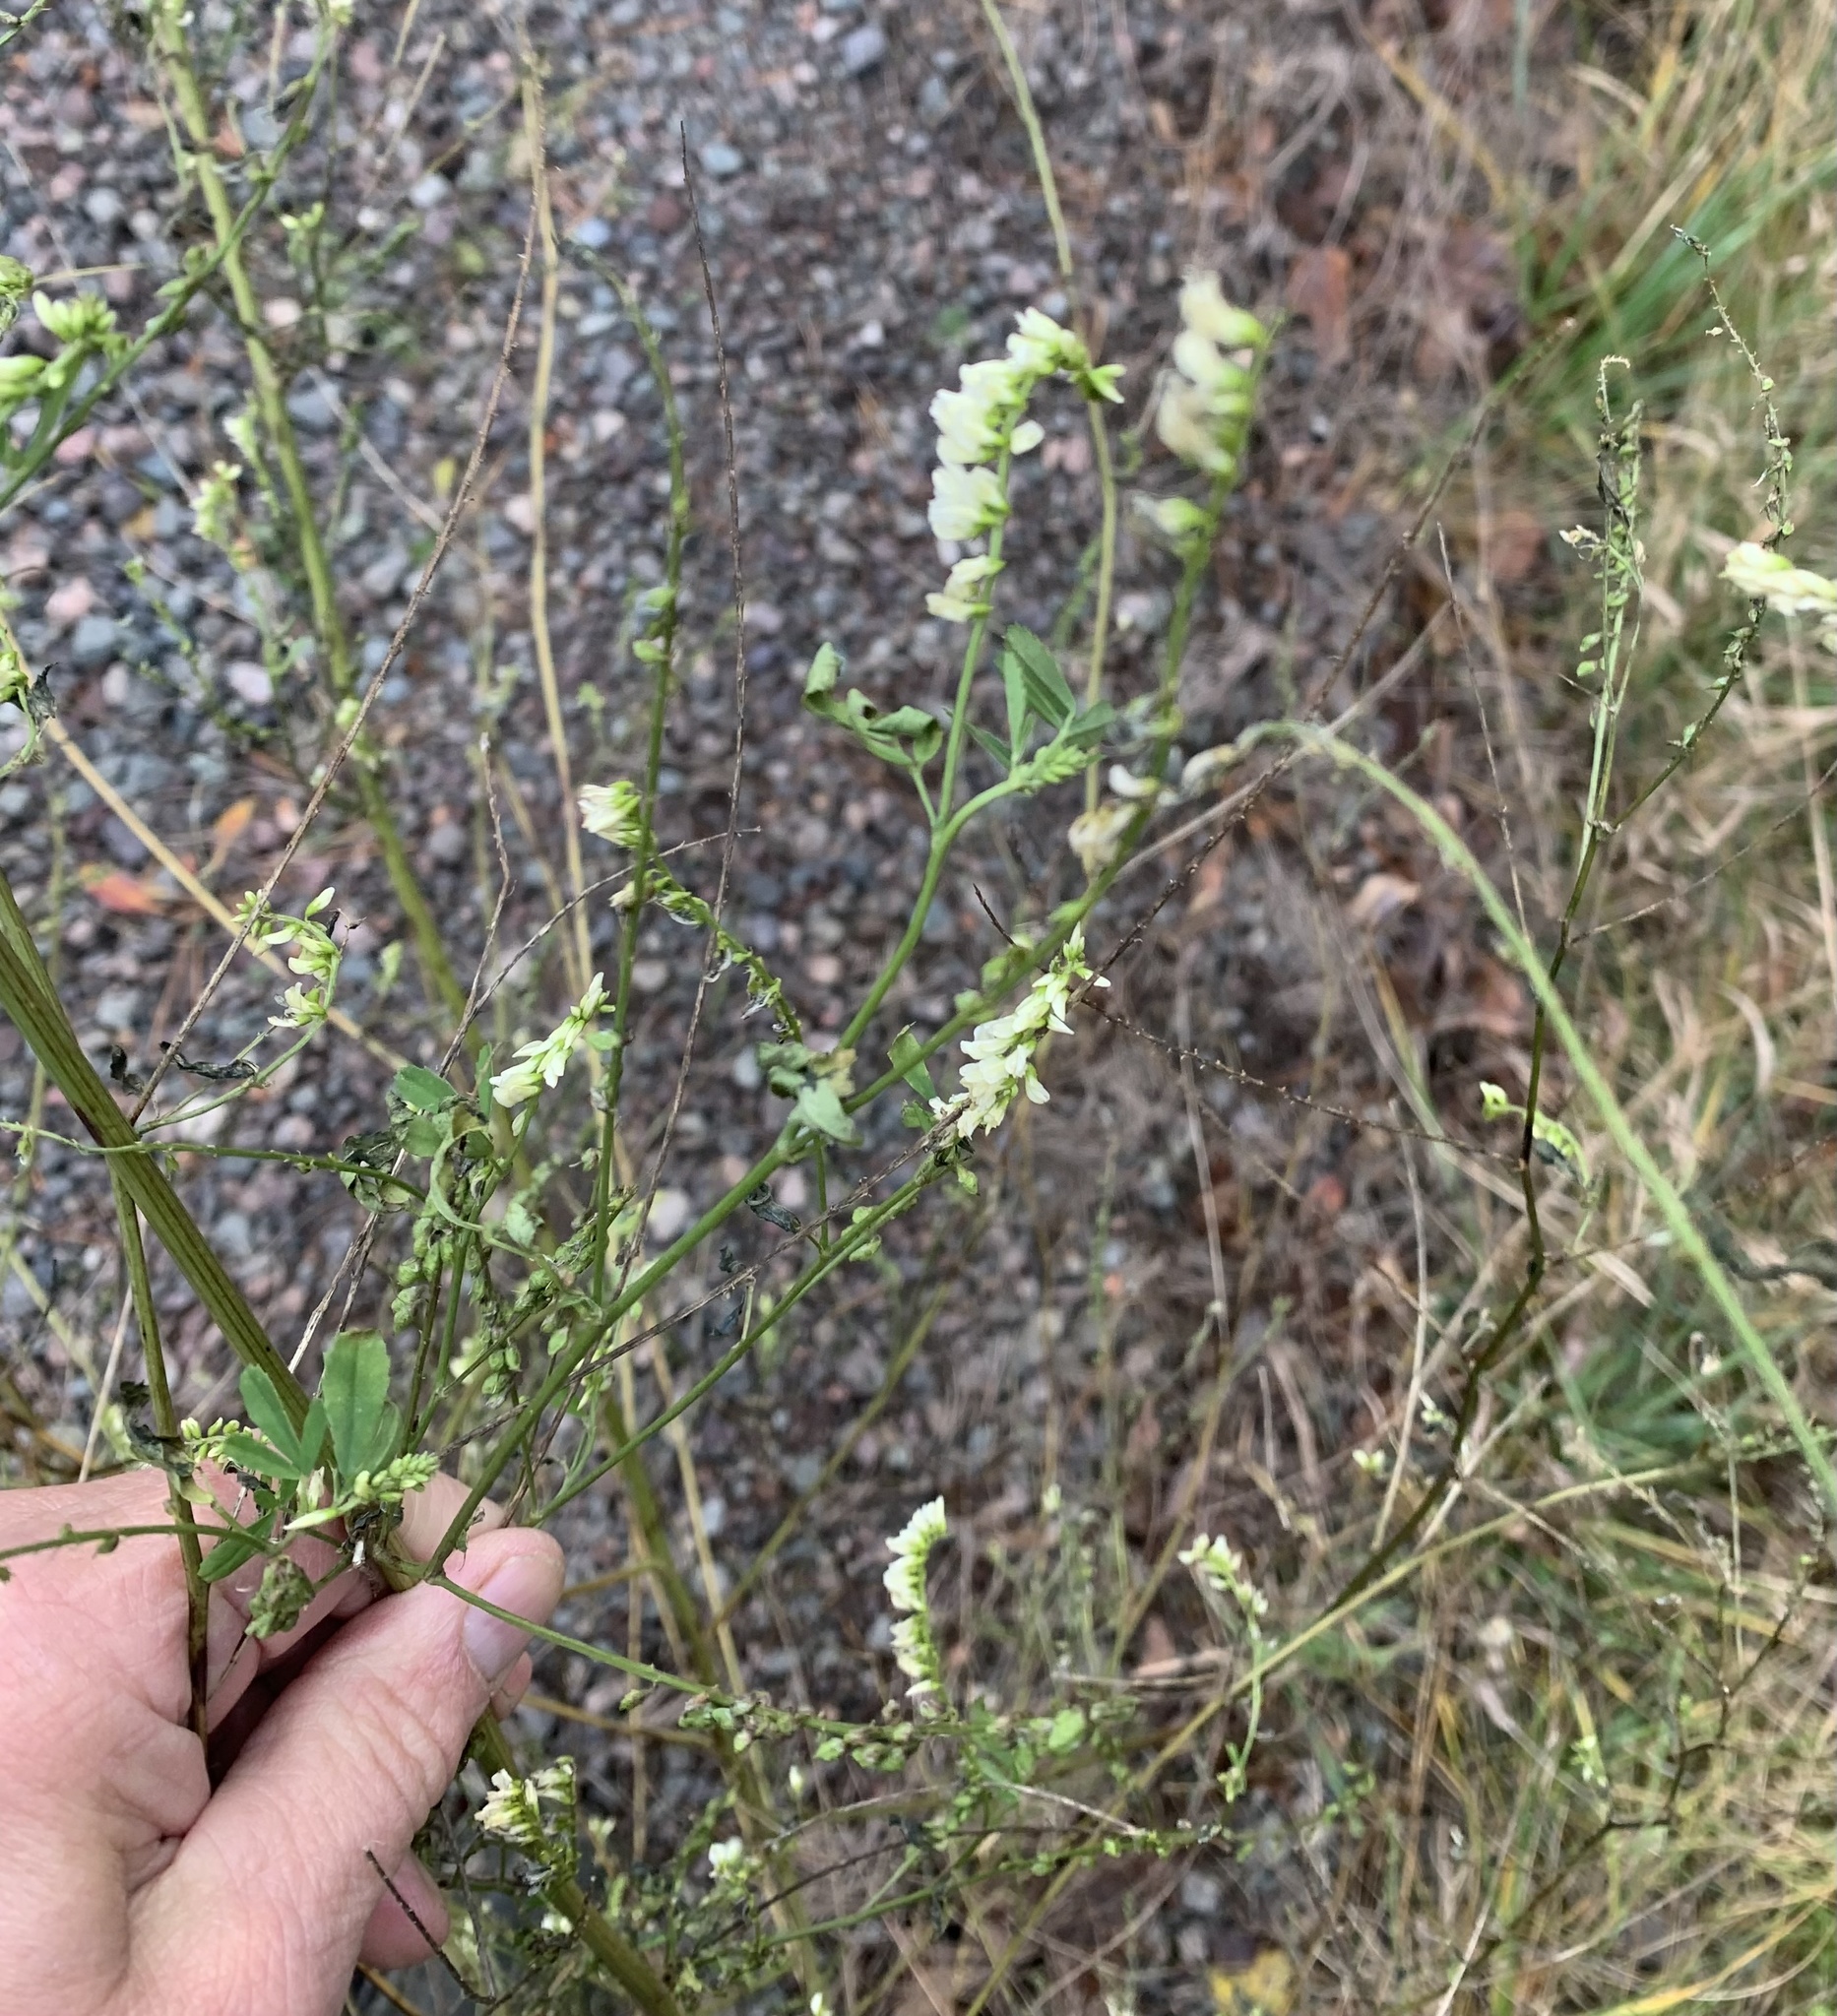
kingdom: Plantae
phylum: Tracheophyta
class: Magnoliopsida
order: Fabales
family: Fabaceae
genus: Melilotus
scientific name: Melilotus albus
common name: White melilot
